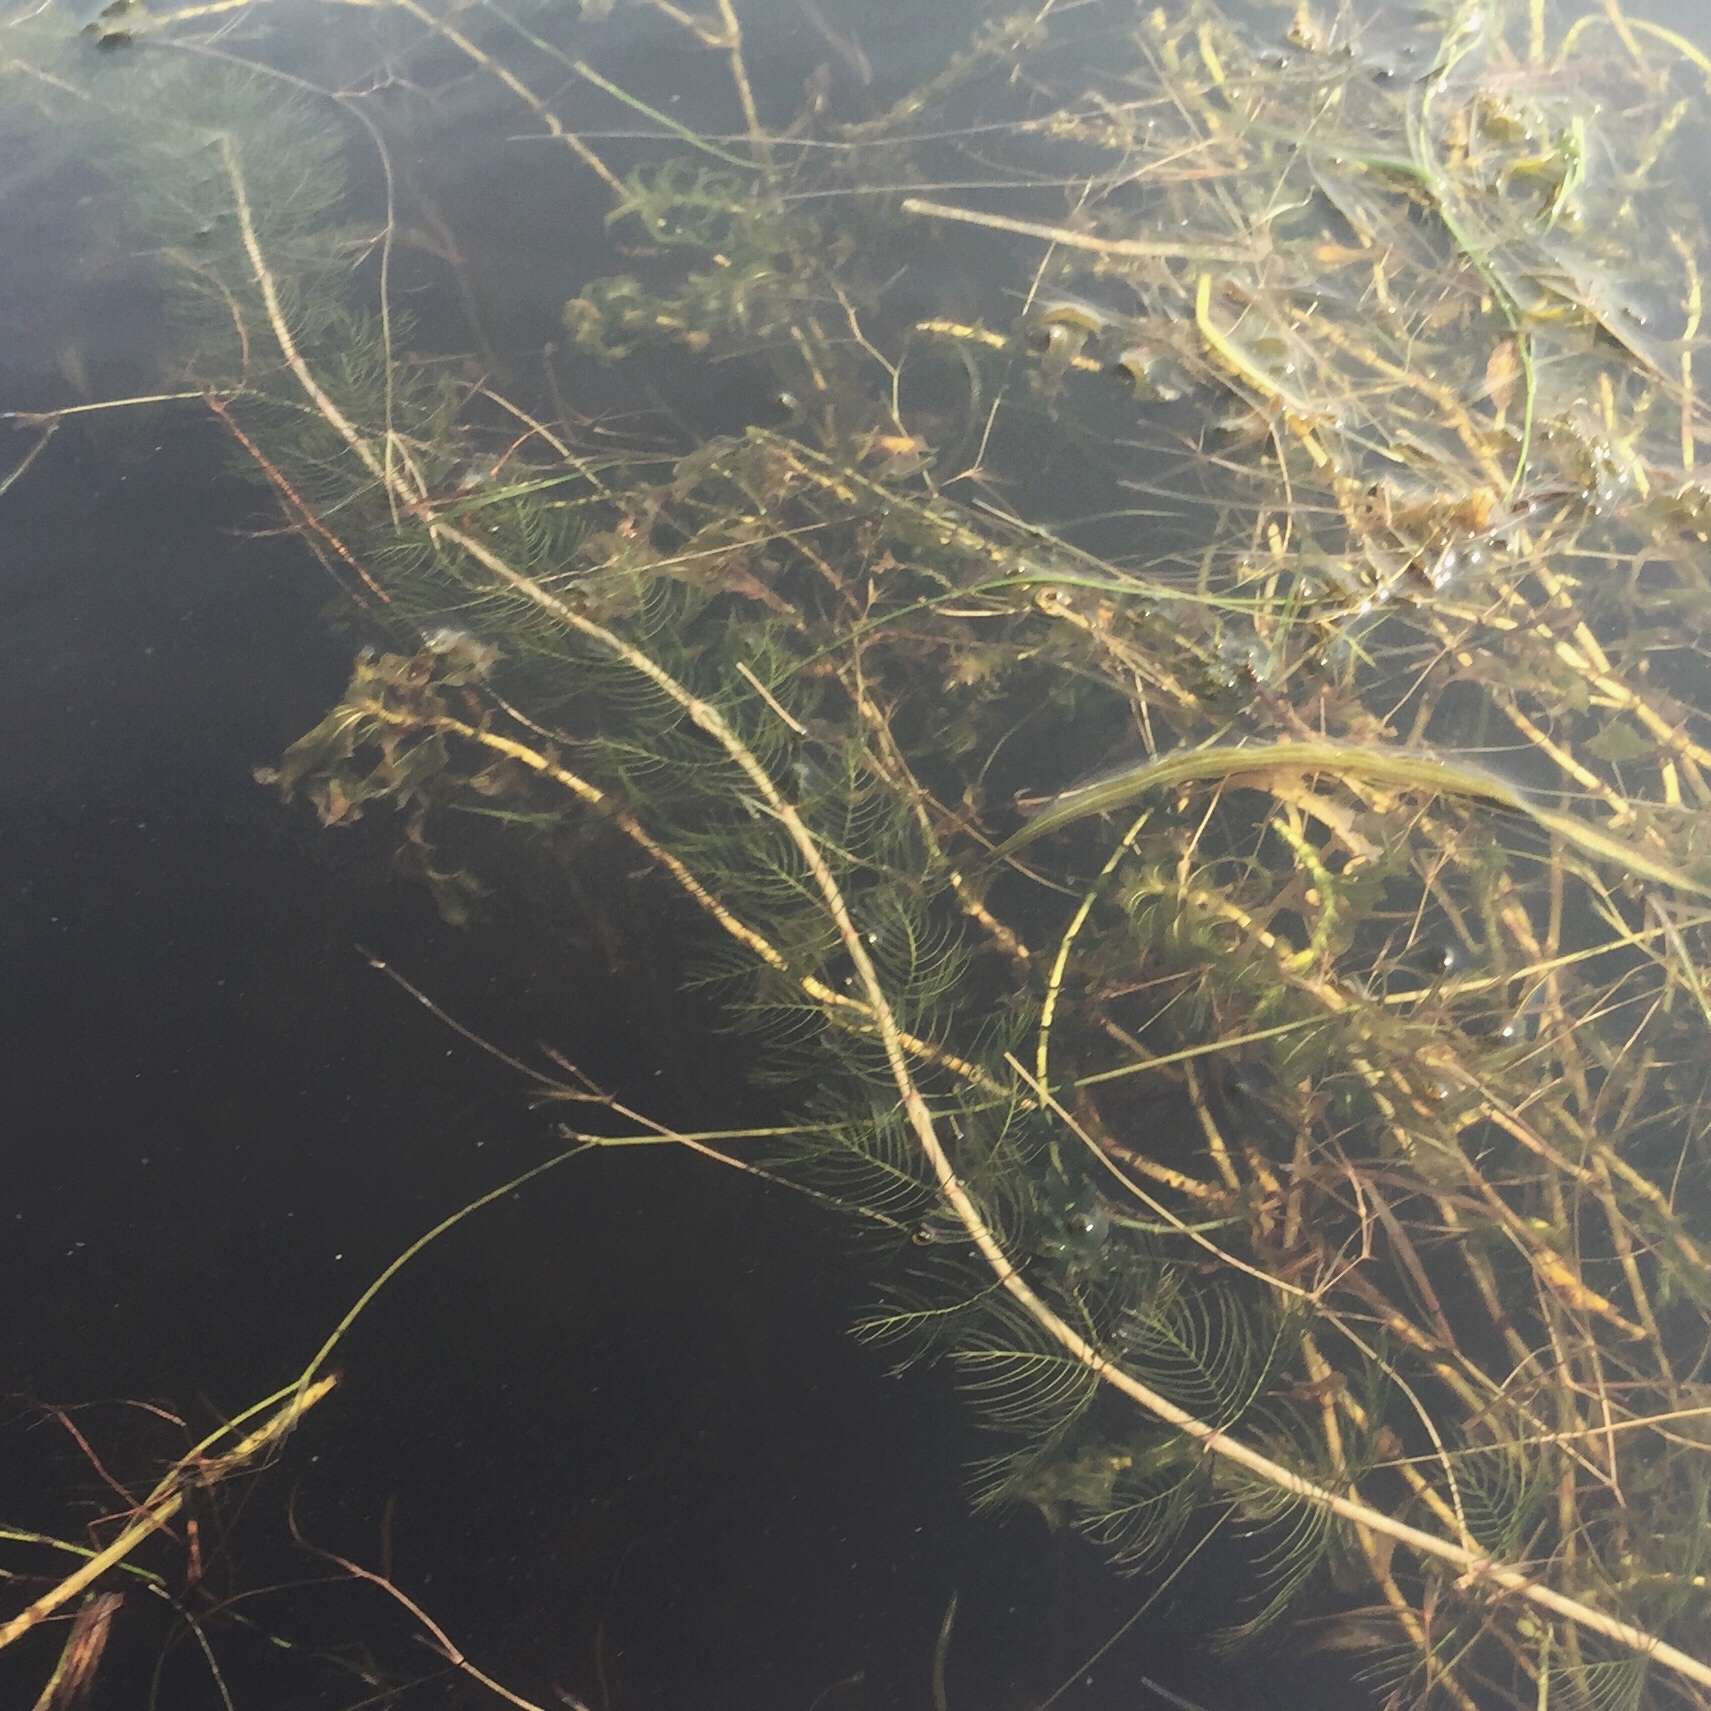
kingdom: Plantae
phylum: Tracheophyta
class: Magnoliopsida
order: Saxifragales
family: Haloragaceae
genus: Myriophyllum
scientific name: Myriophyllum sibiricum
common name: Siberian water-milfoil
